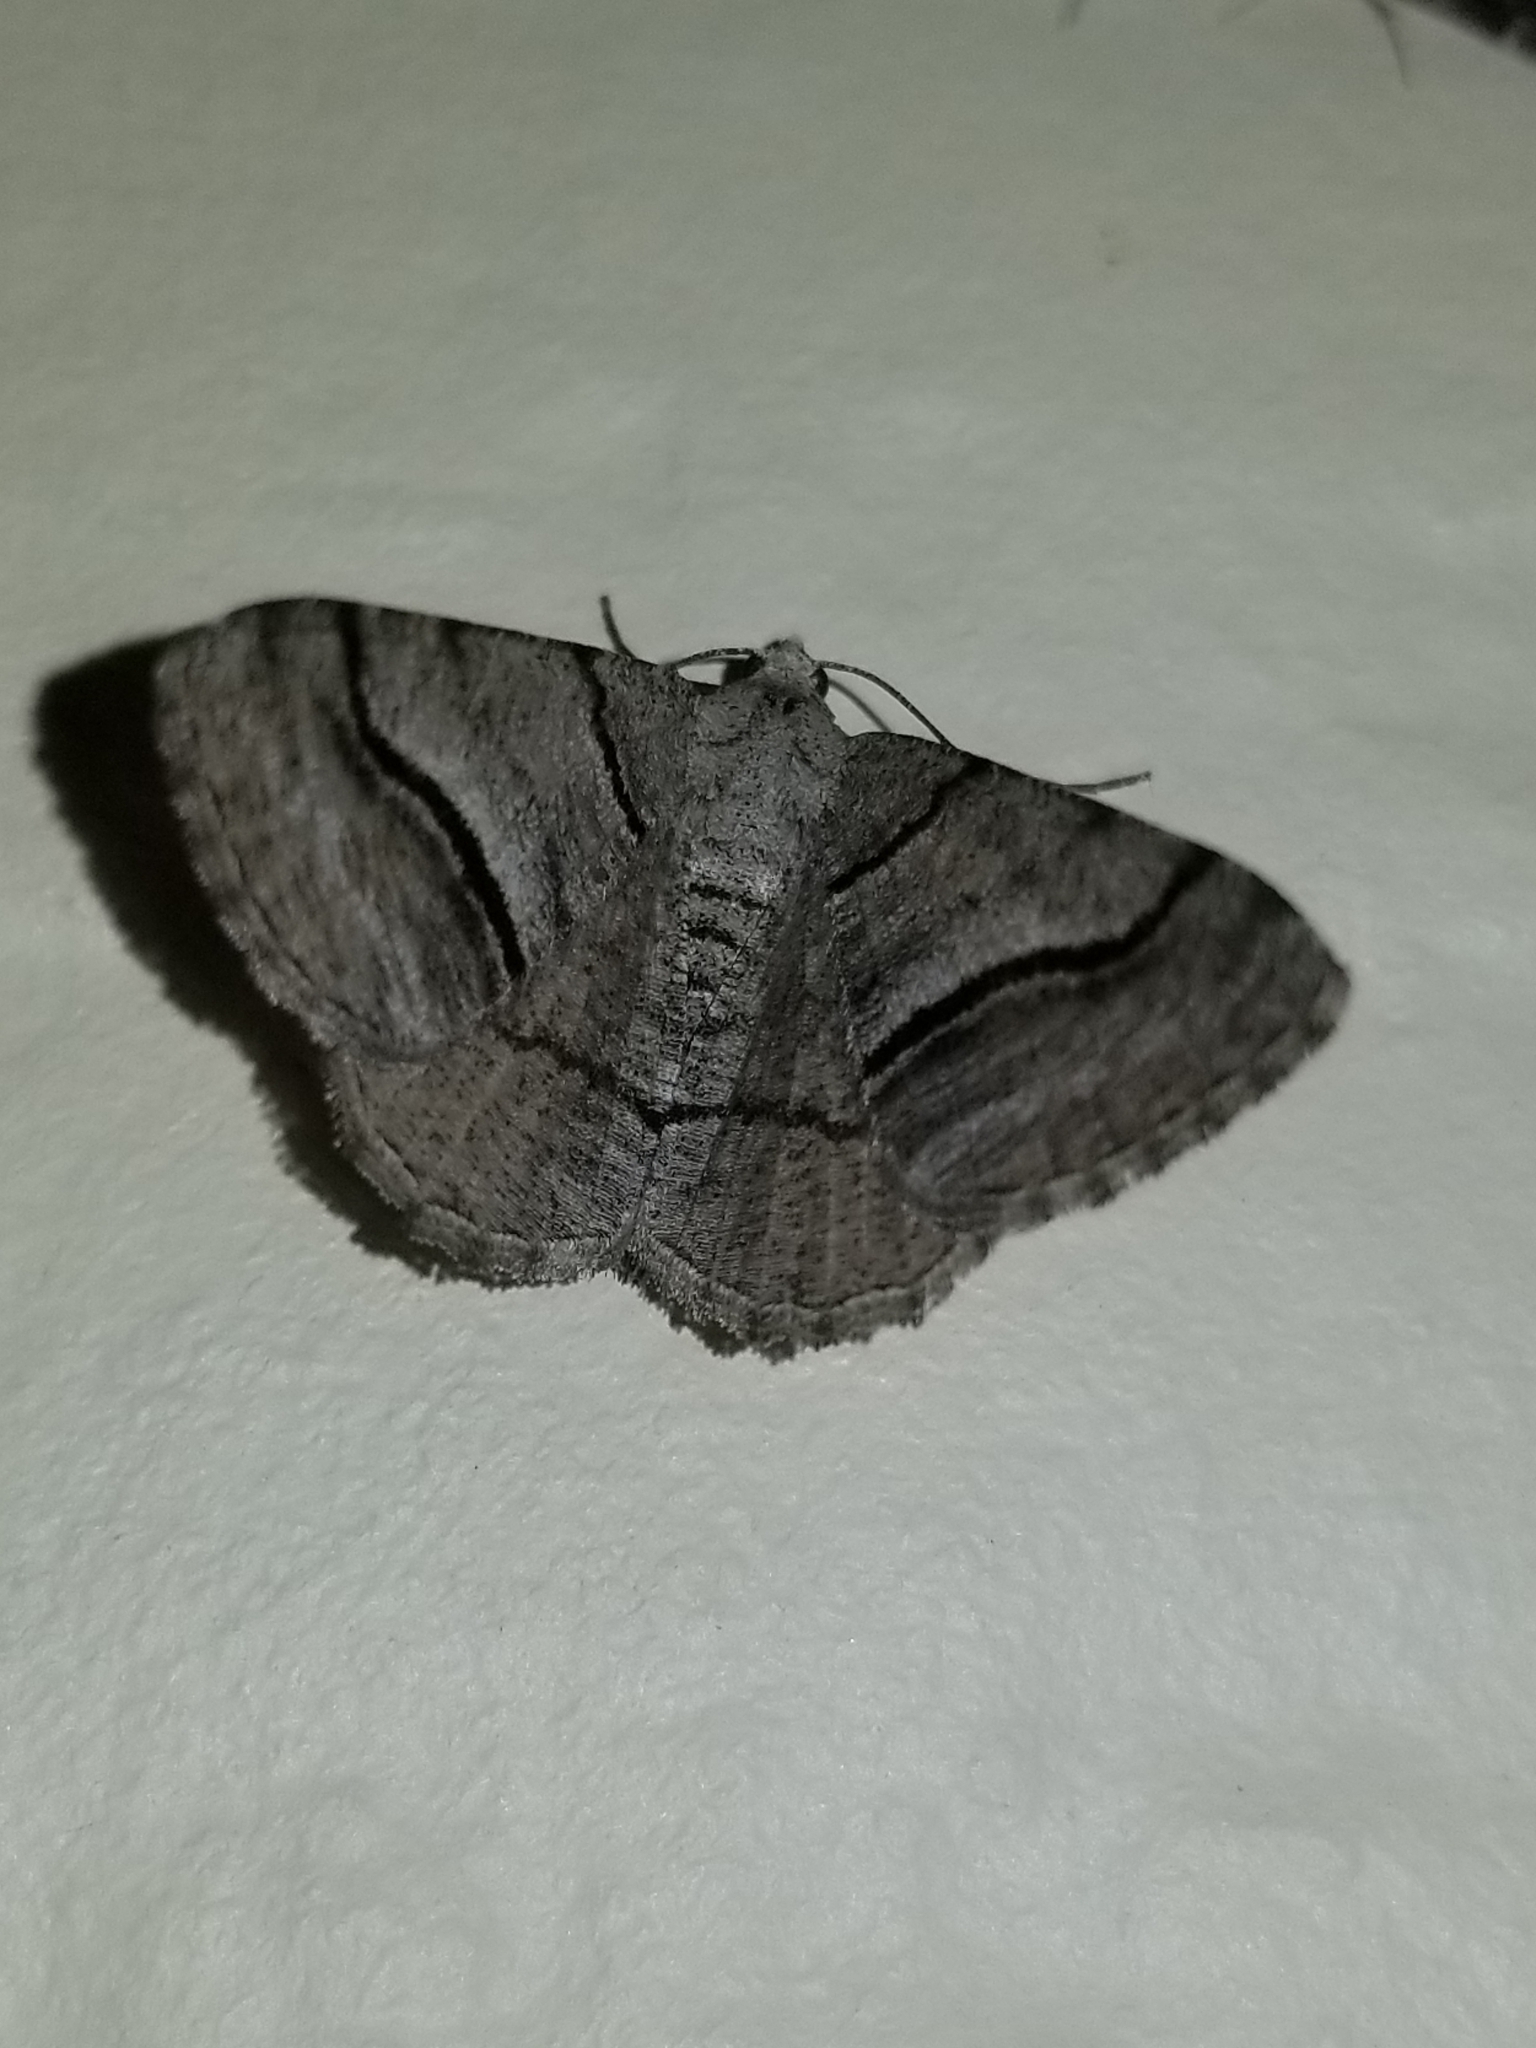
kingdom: Animalia
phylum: Arthropoda
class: Insecta
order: Lepidoptera
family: Geometridae
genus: Digrammia
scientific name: Digrammia continuata
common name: Curve-lined angle
